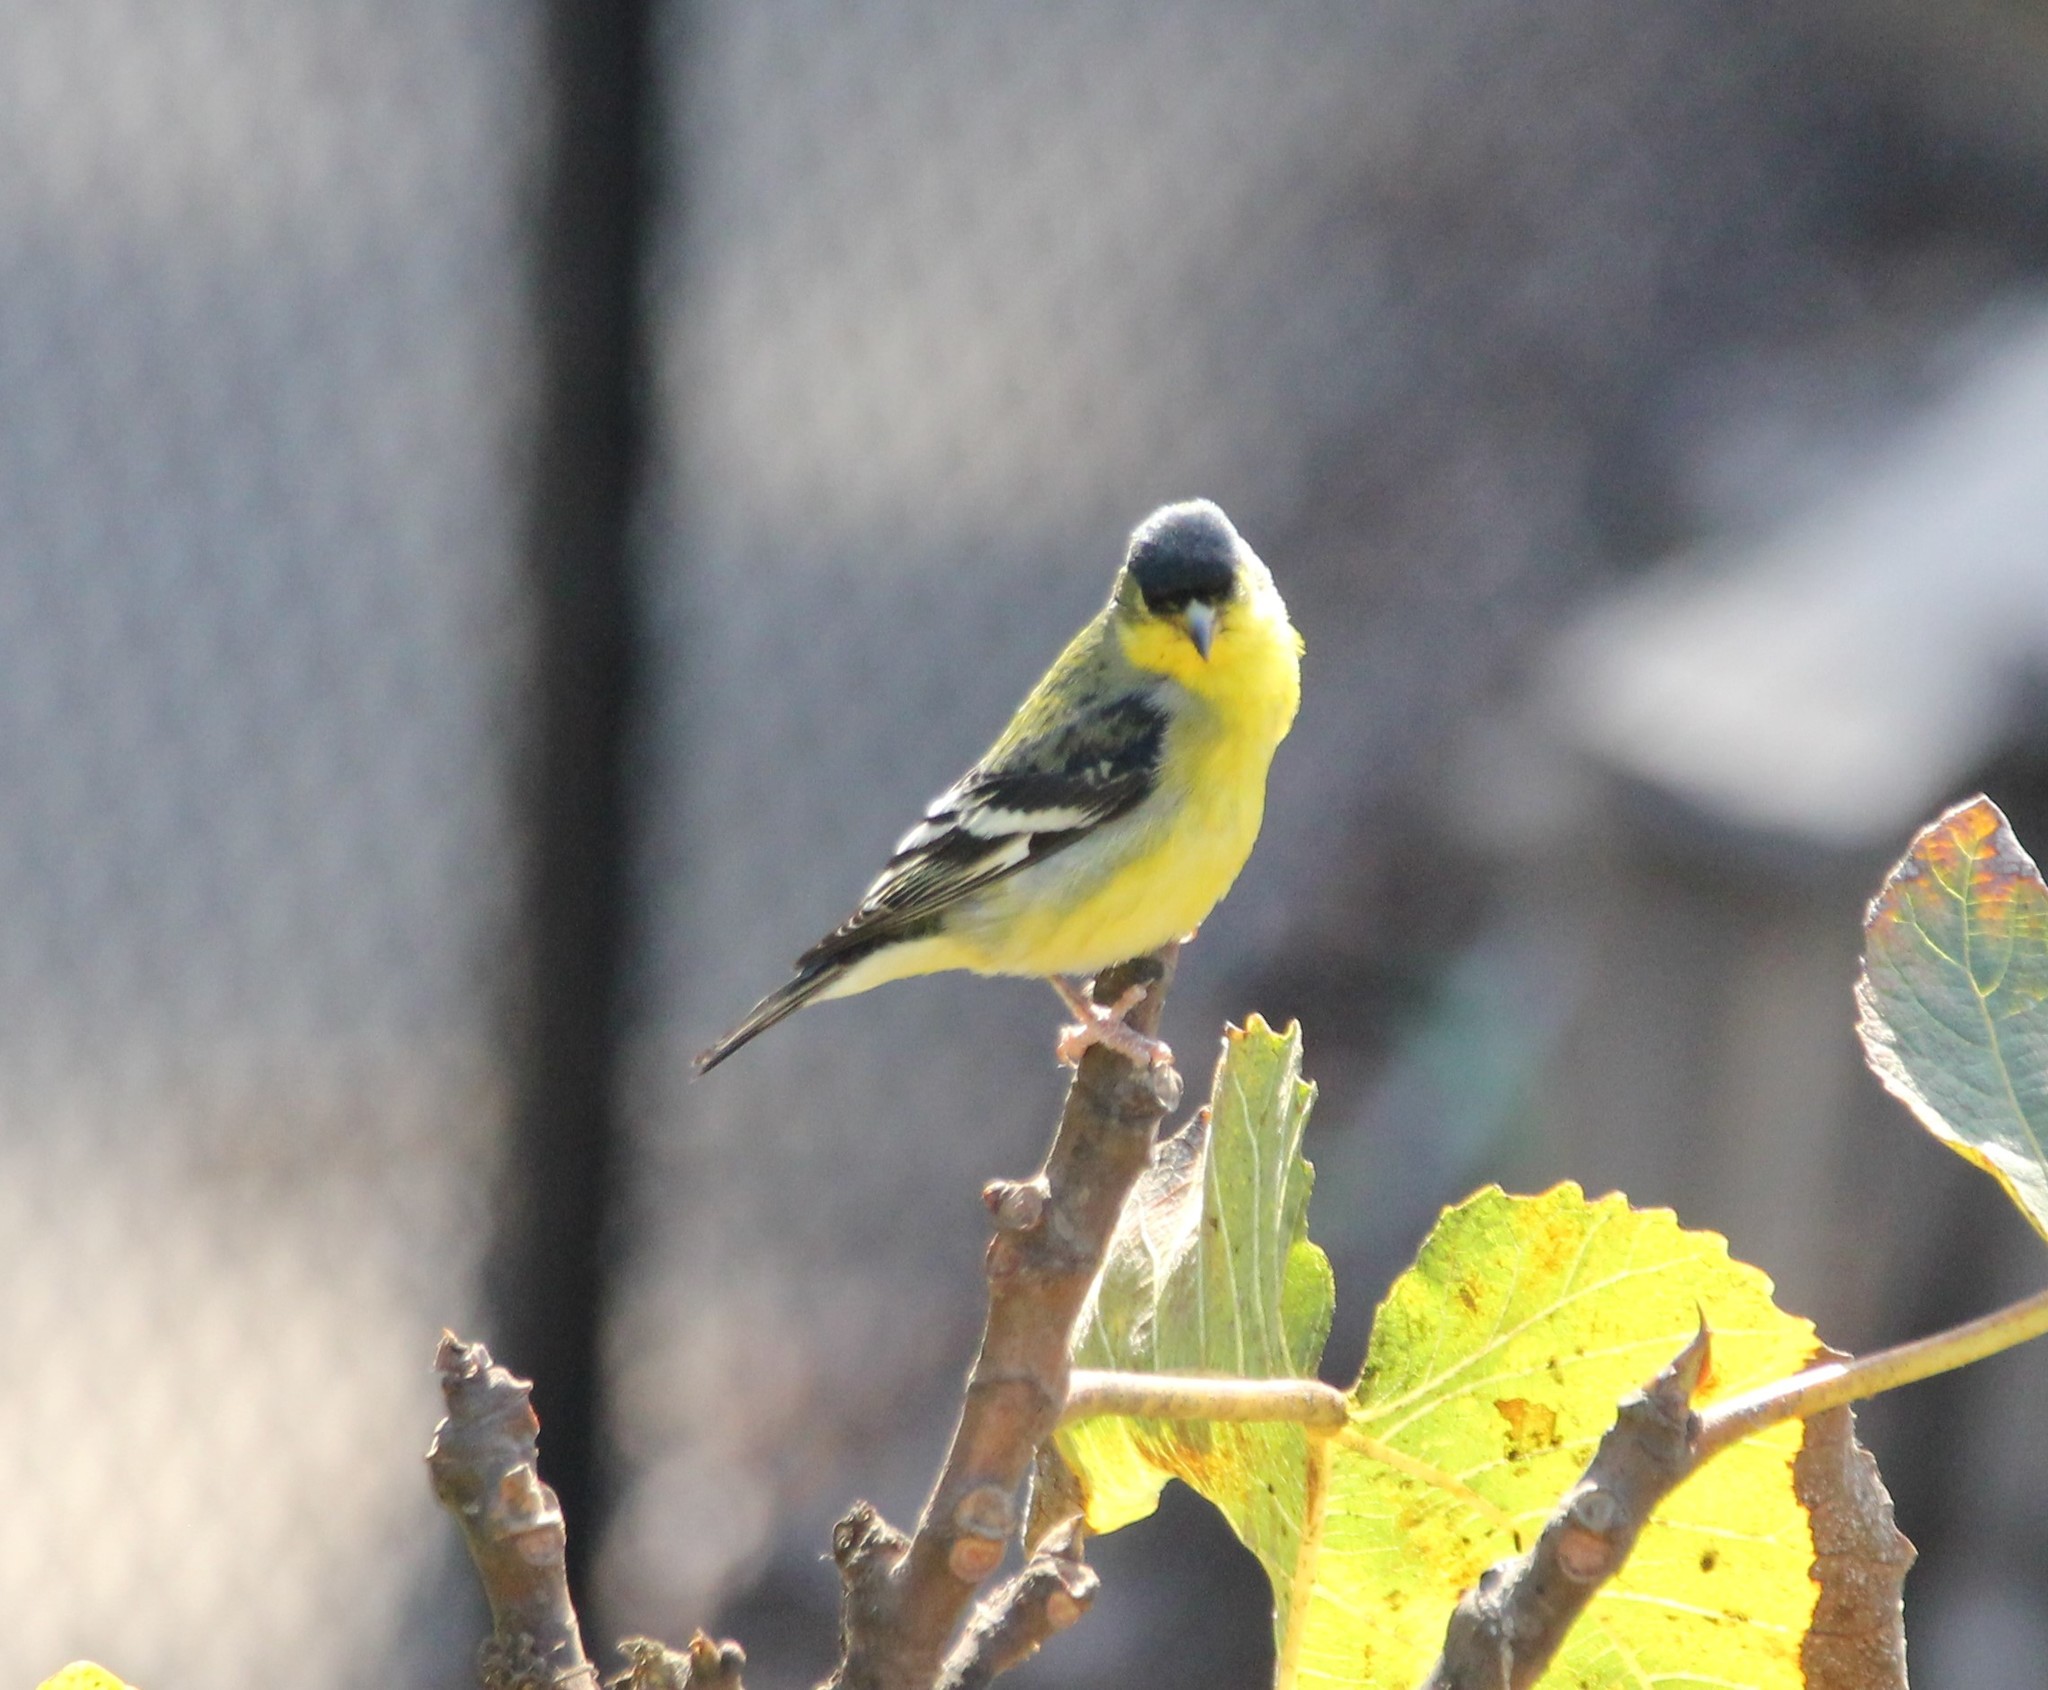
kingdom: Animalia
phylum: Chordata
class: Aves
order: Passeriformes
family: Fringillidae
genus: Spinus
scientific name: Spinus psaltria
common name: Lesser goldfinch
